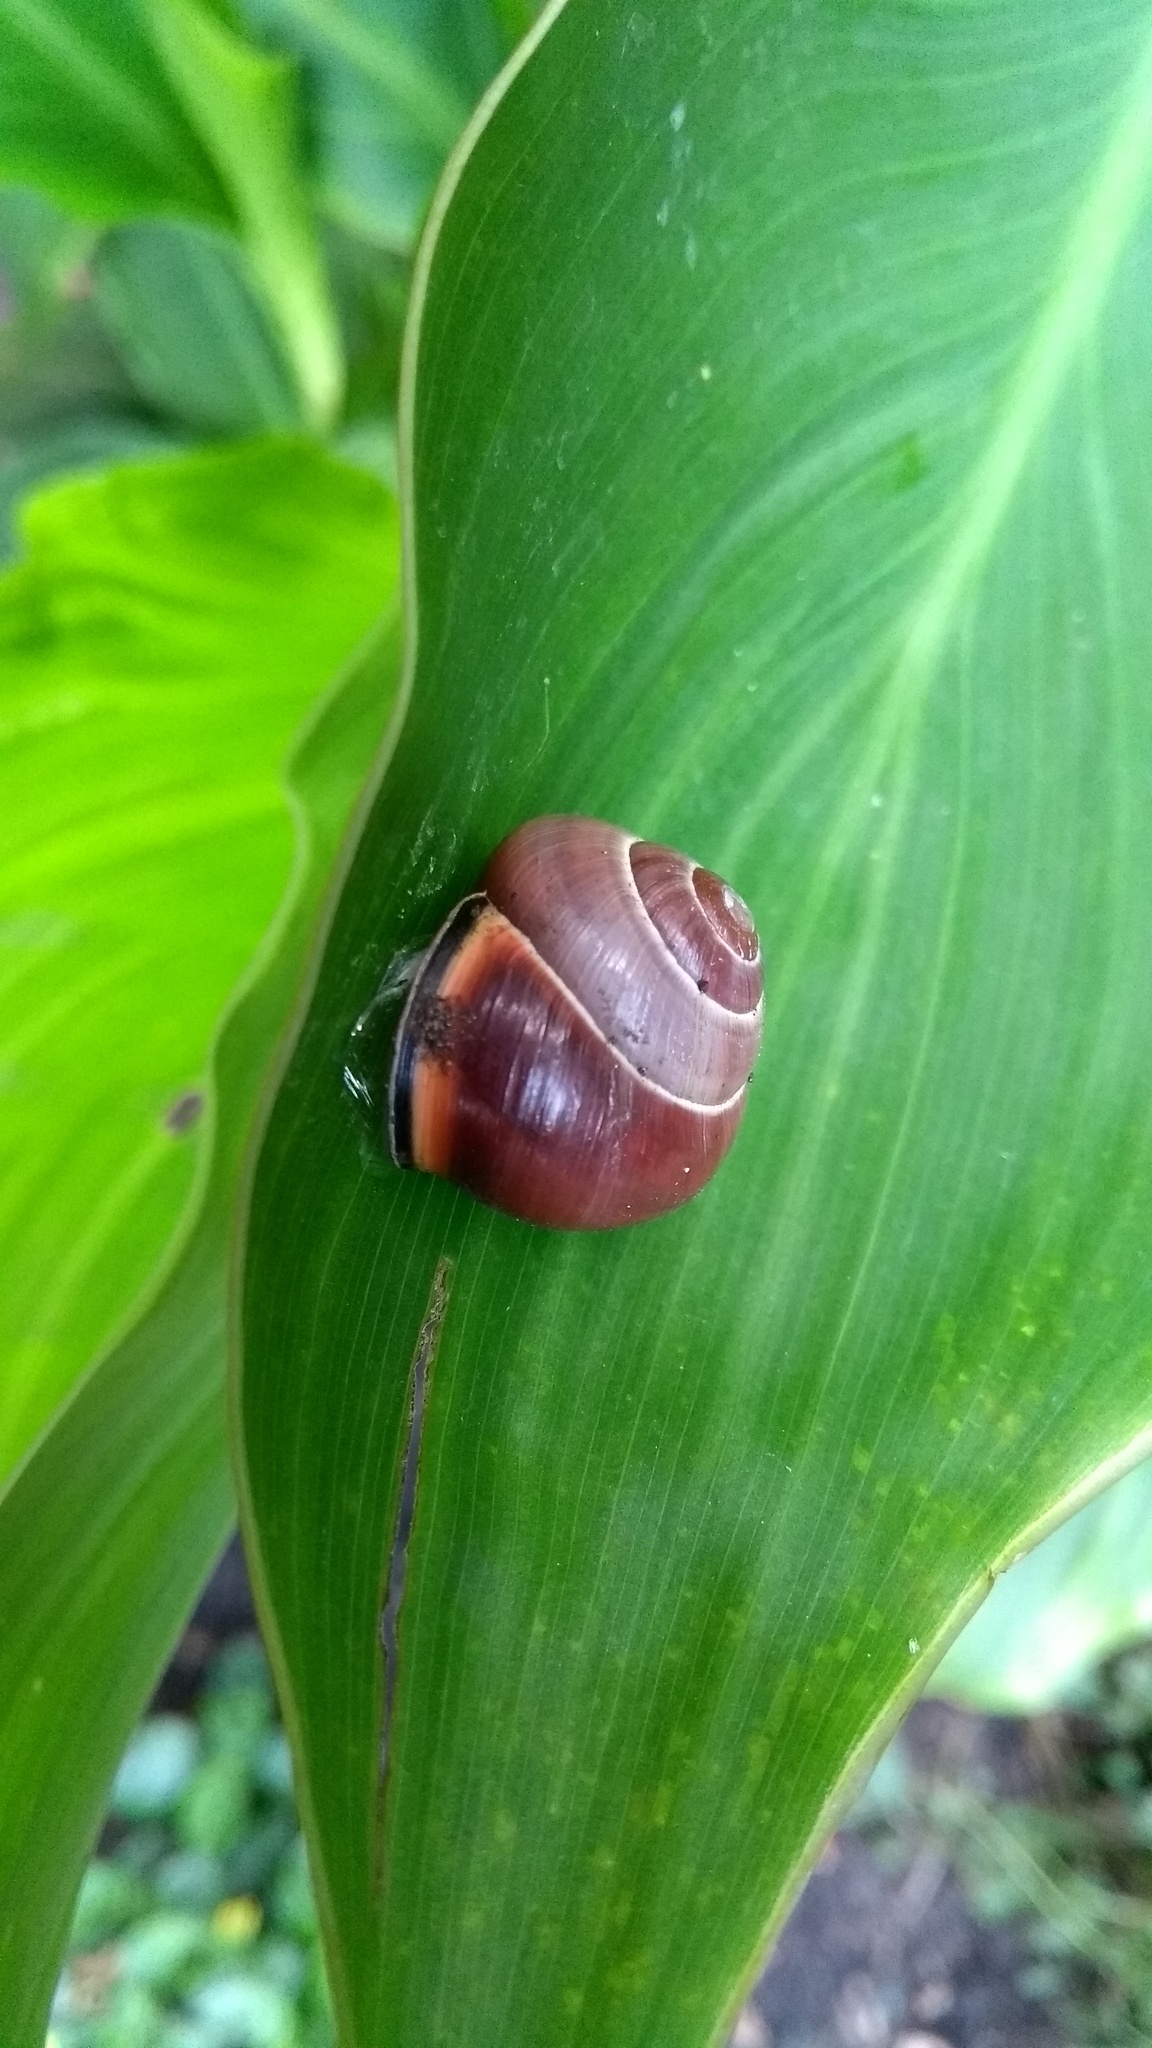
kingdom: Animalia
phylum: Mollusca
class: Gastropoda
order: Stylommatophora
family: Helicidae
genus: Cepaea
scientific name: Cepaea nemoralis
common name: Grovesnail
